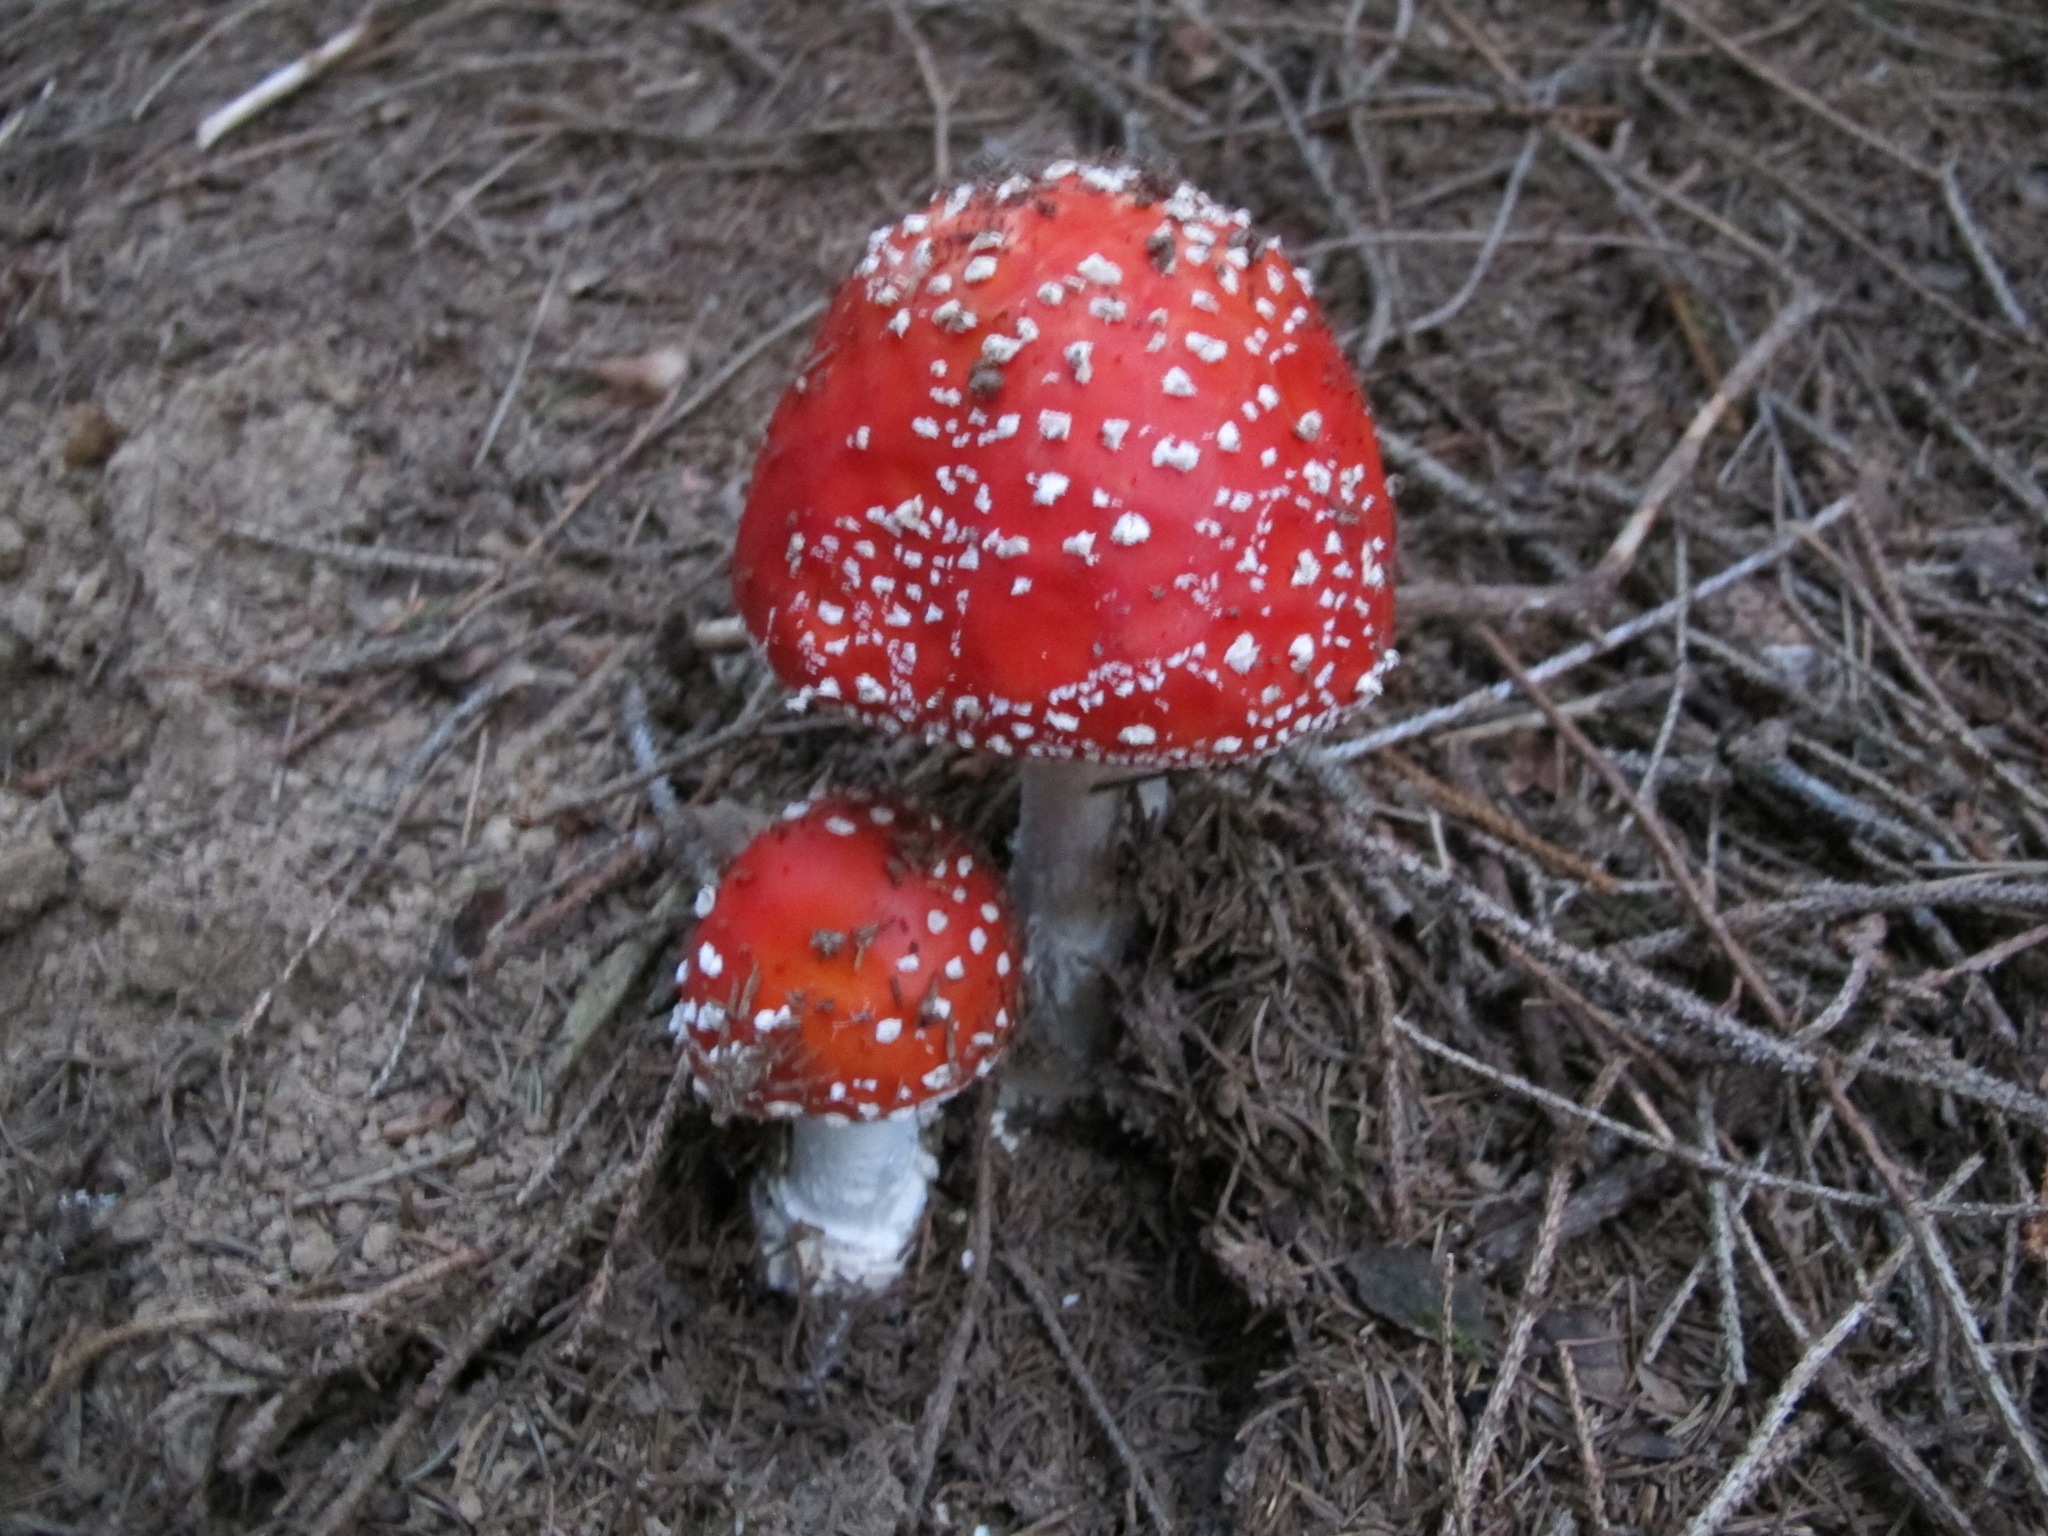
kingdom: Fungi
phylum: Basidiomycota
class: Agaricomycetes
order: Agaricales
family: Amanitaceae
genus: Amanita
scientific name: Amanita muscaria
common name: Fly agaric
